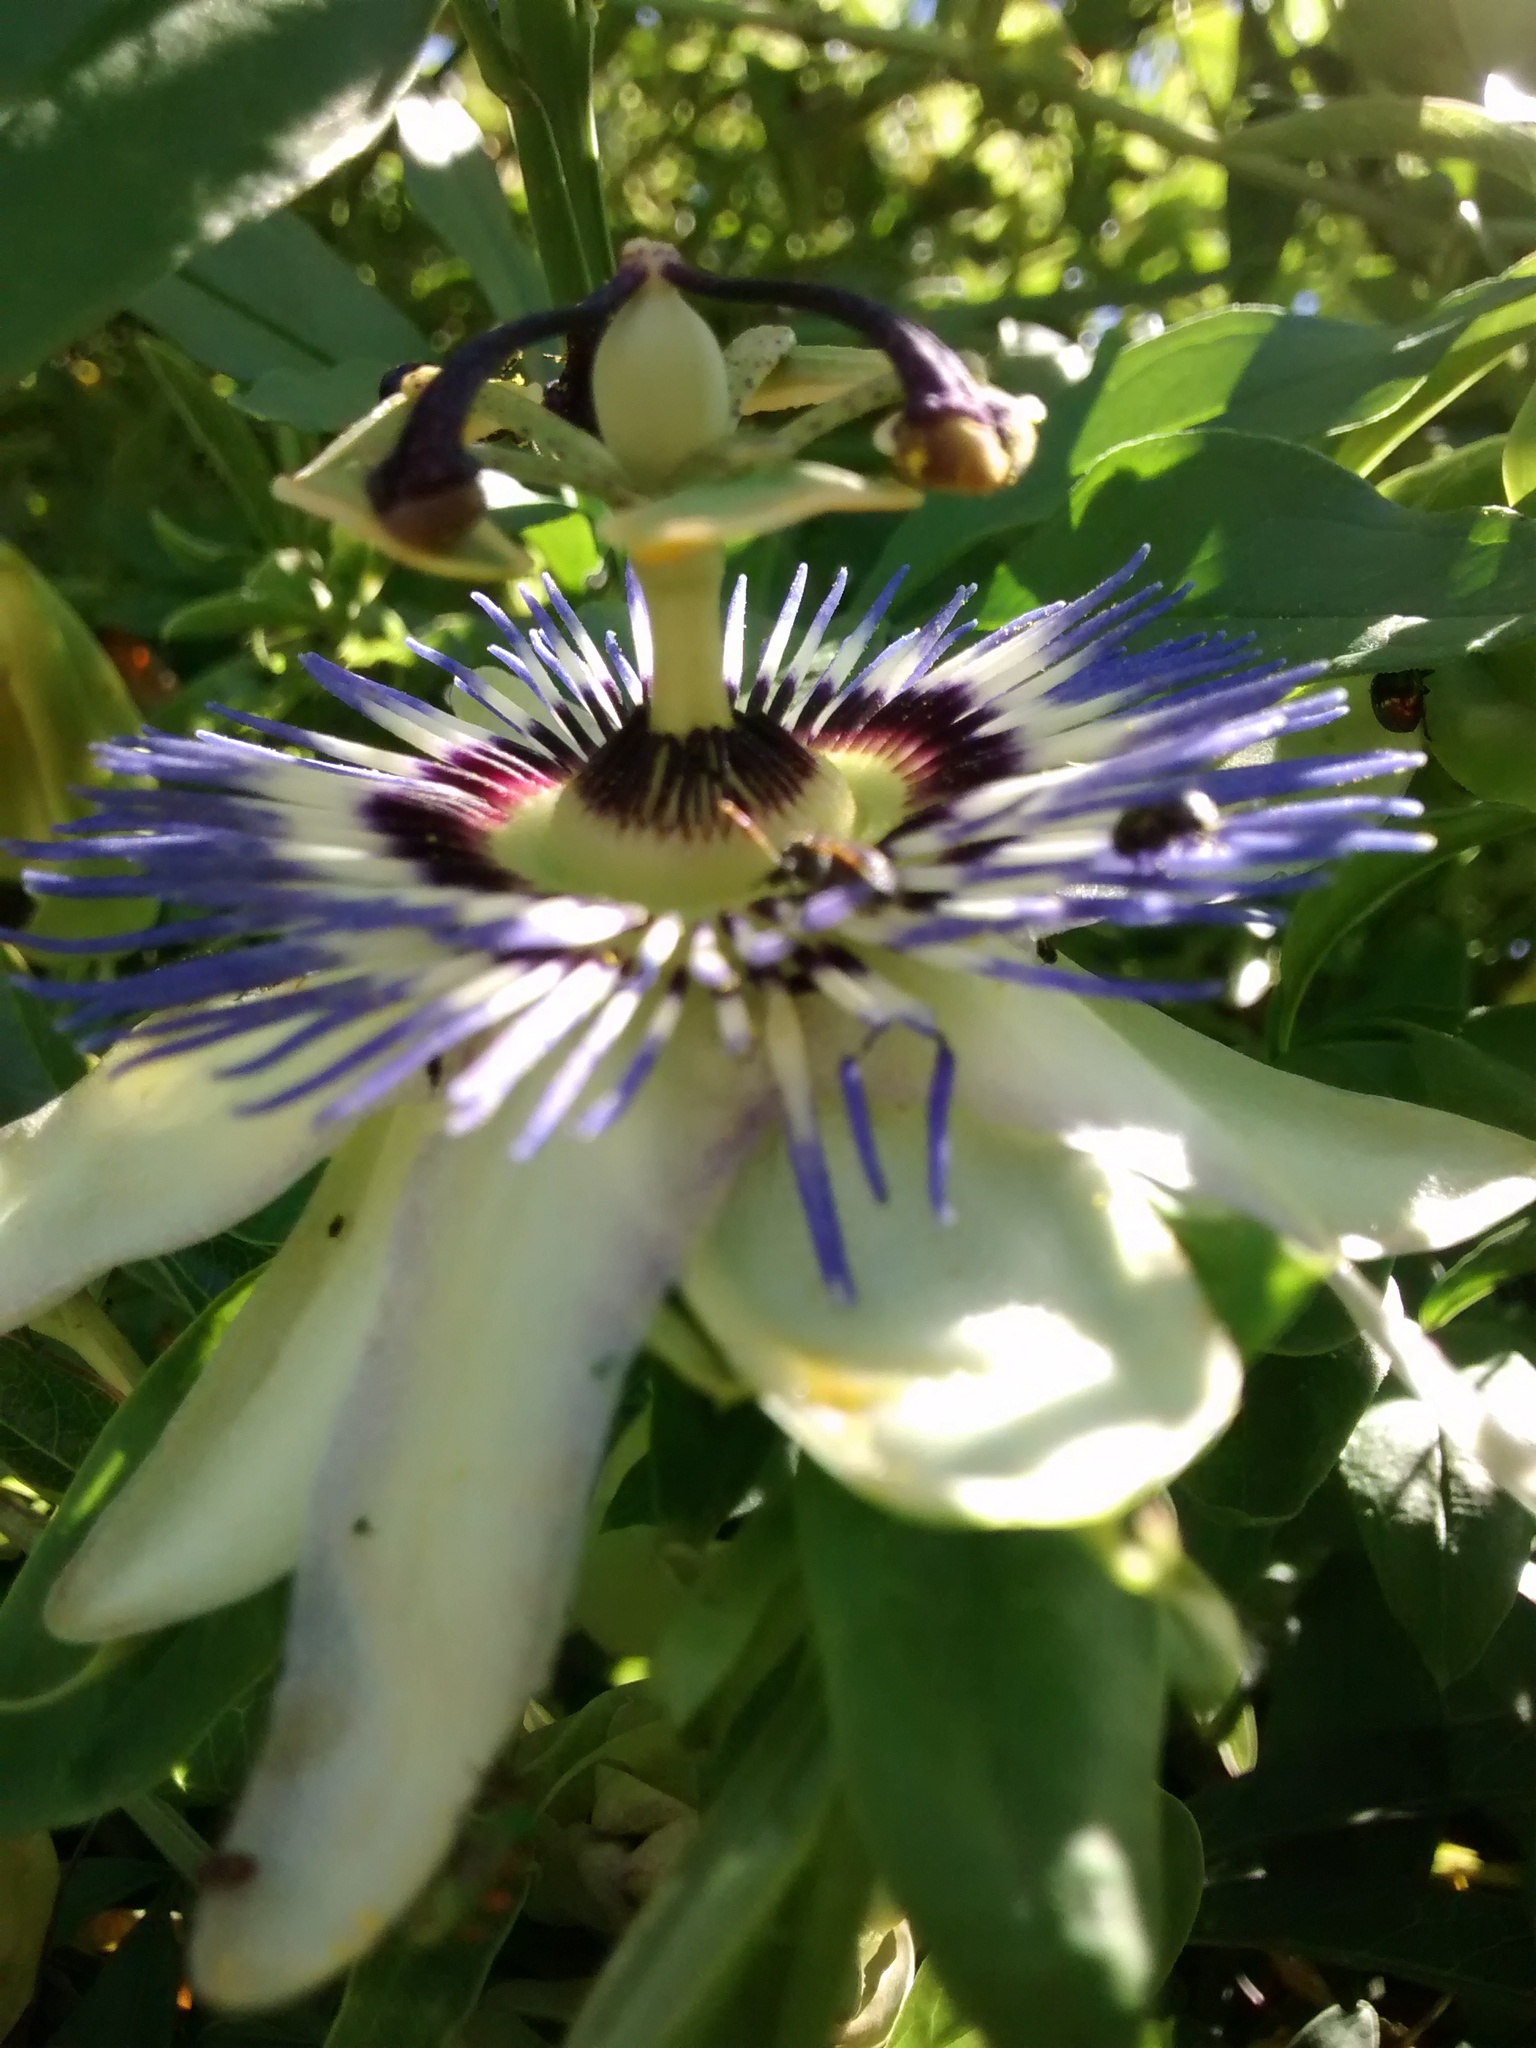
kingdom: Plantae
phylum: Tracheophyta
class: Magnoliopsida
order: Malpighiales
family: Passifloraceae
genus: Passiflora
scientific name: Passiflora caerulea
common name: Blue passionflower
